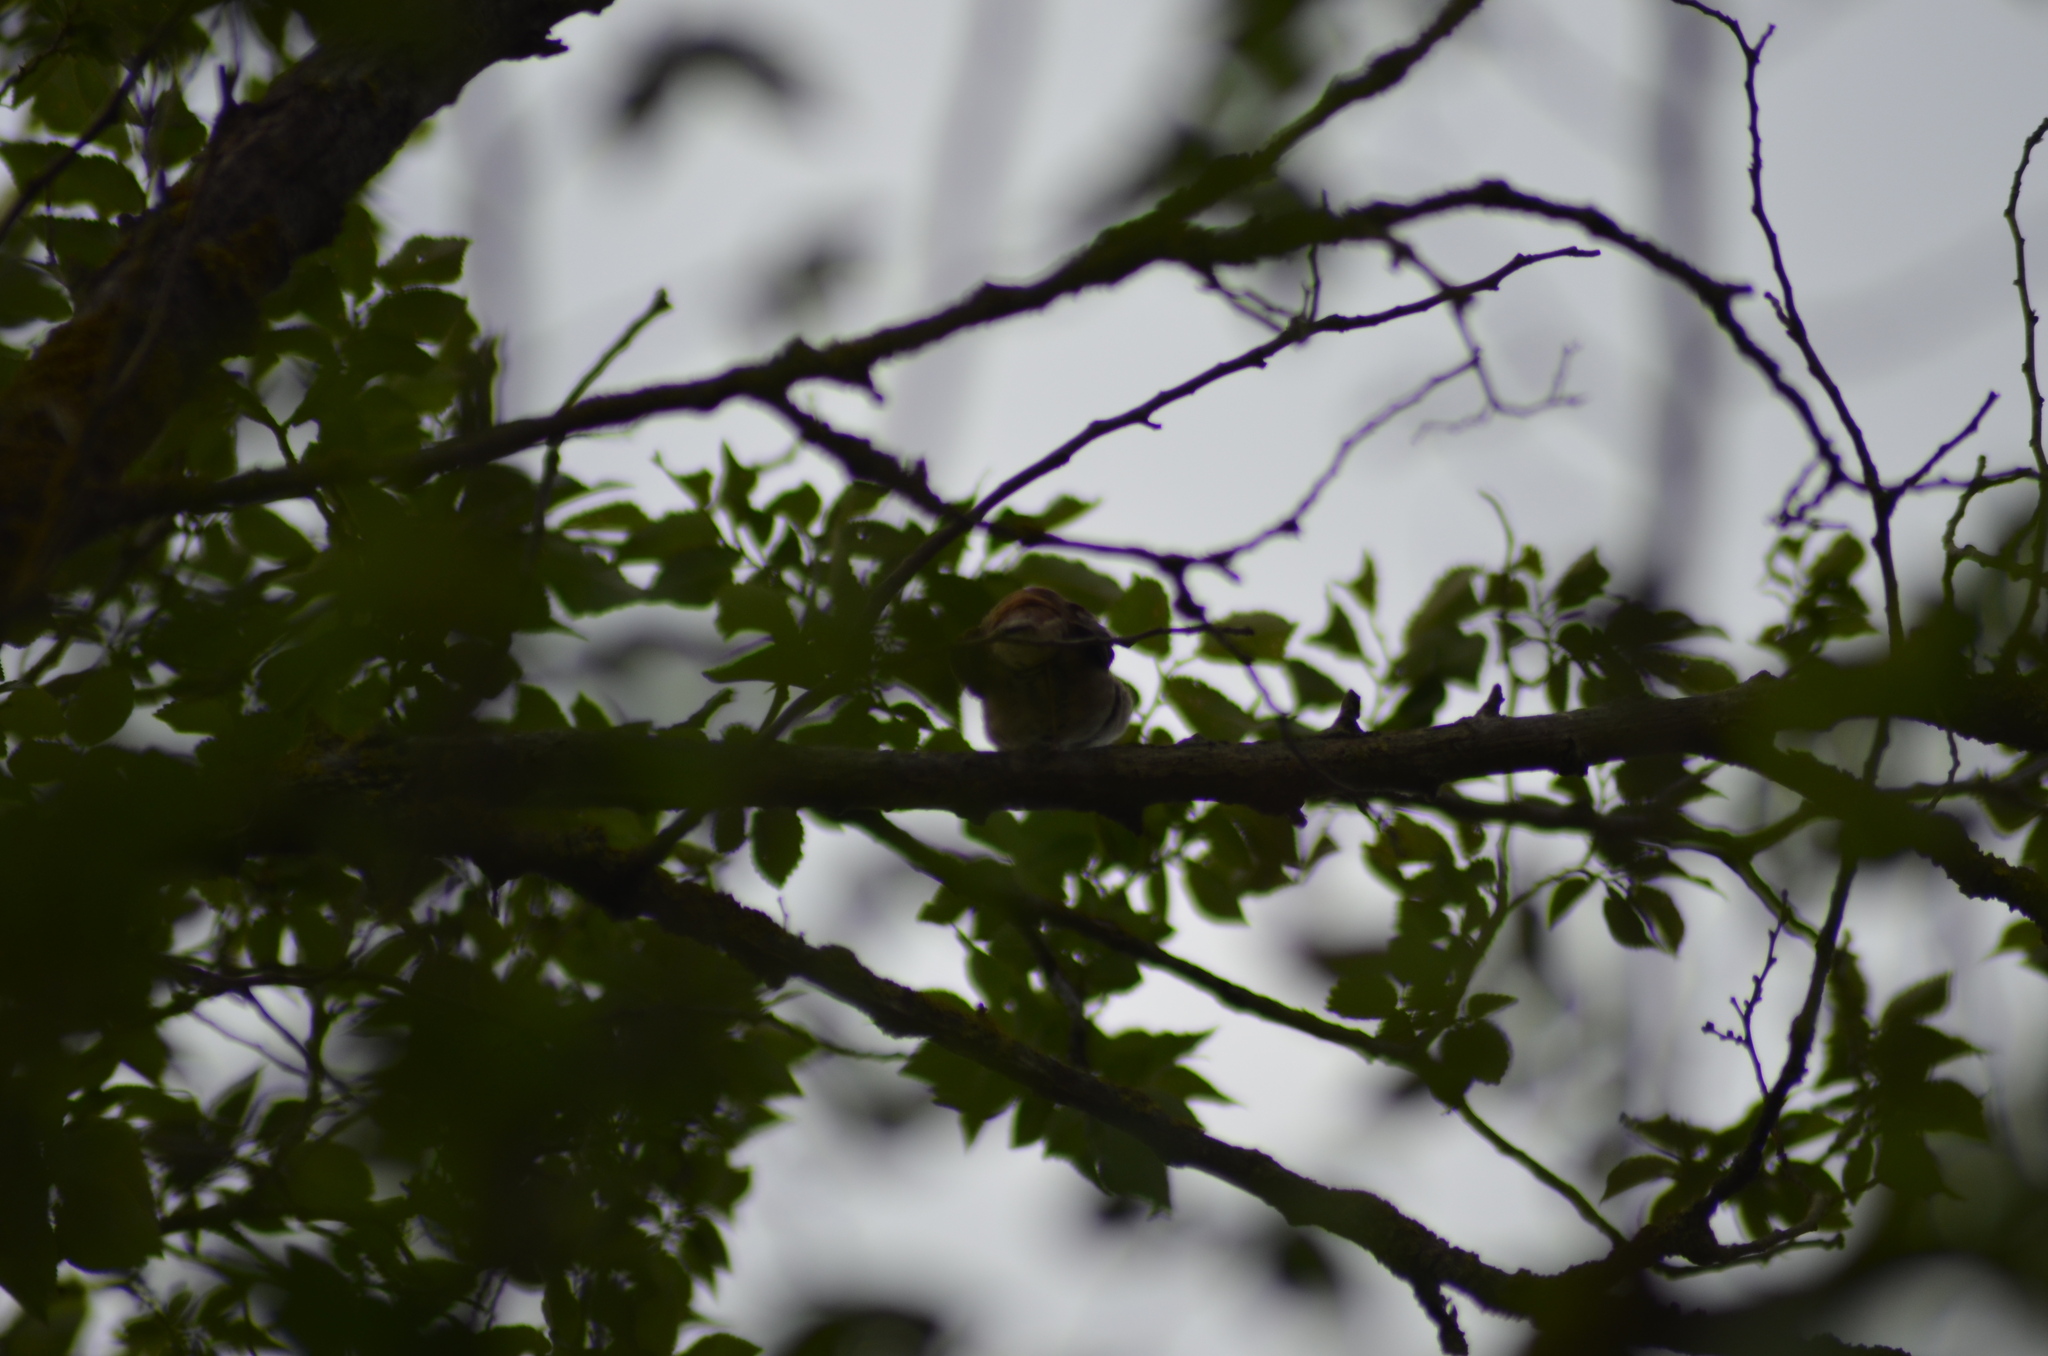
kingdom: Animalia
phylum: Chordata
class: Aves
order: Passeriformes
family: Muscicapidae
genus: Luscinia
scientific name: Luscinia megarhynchos
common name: Common nightingale
